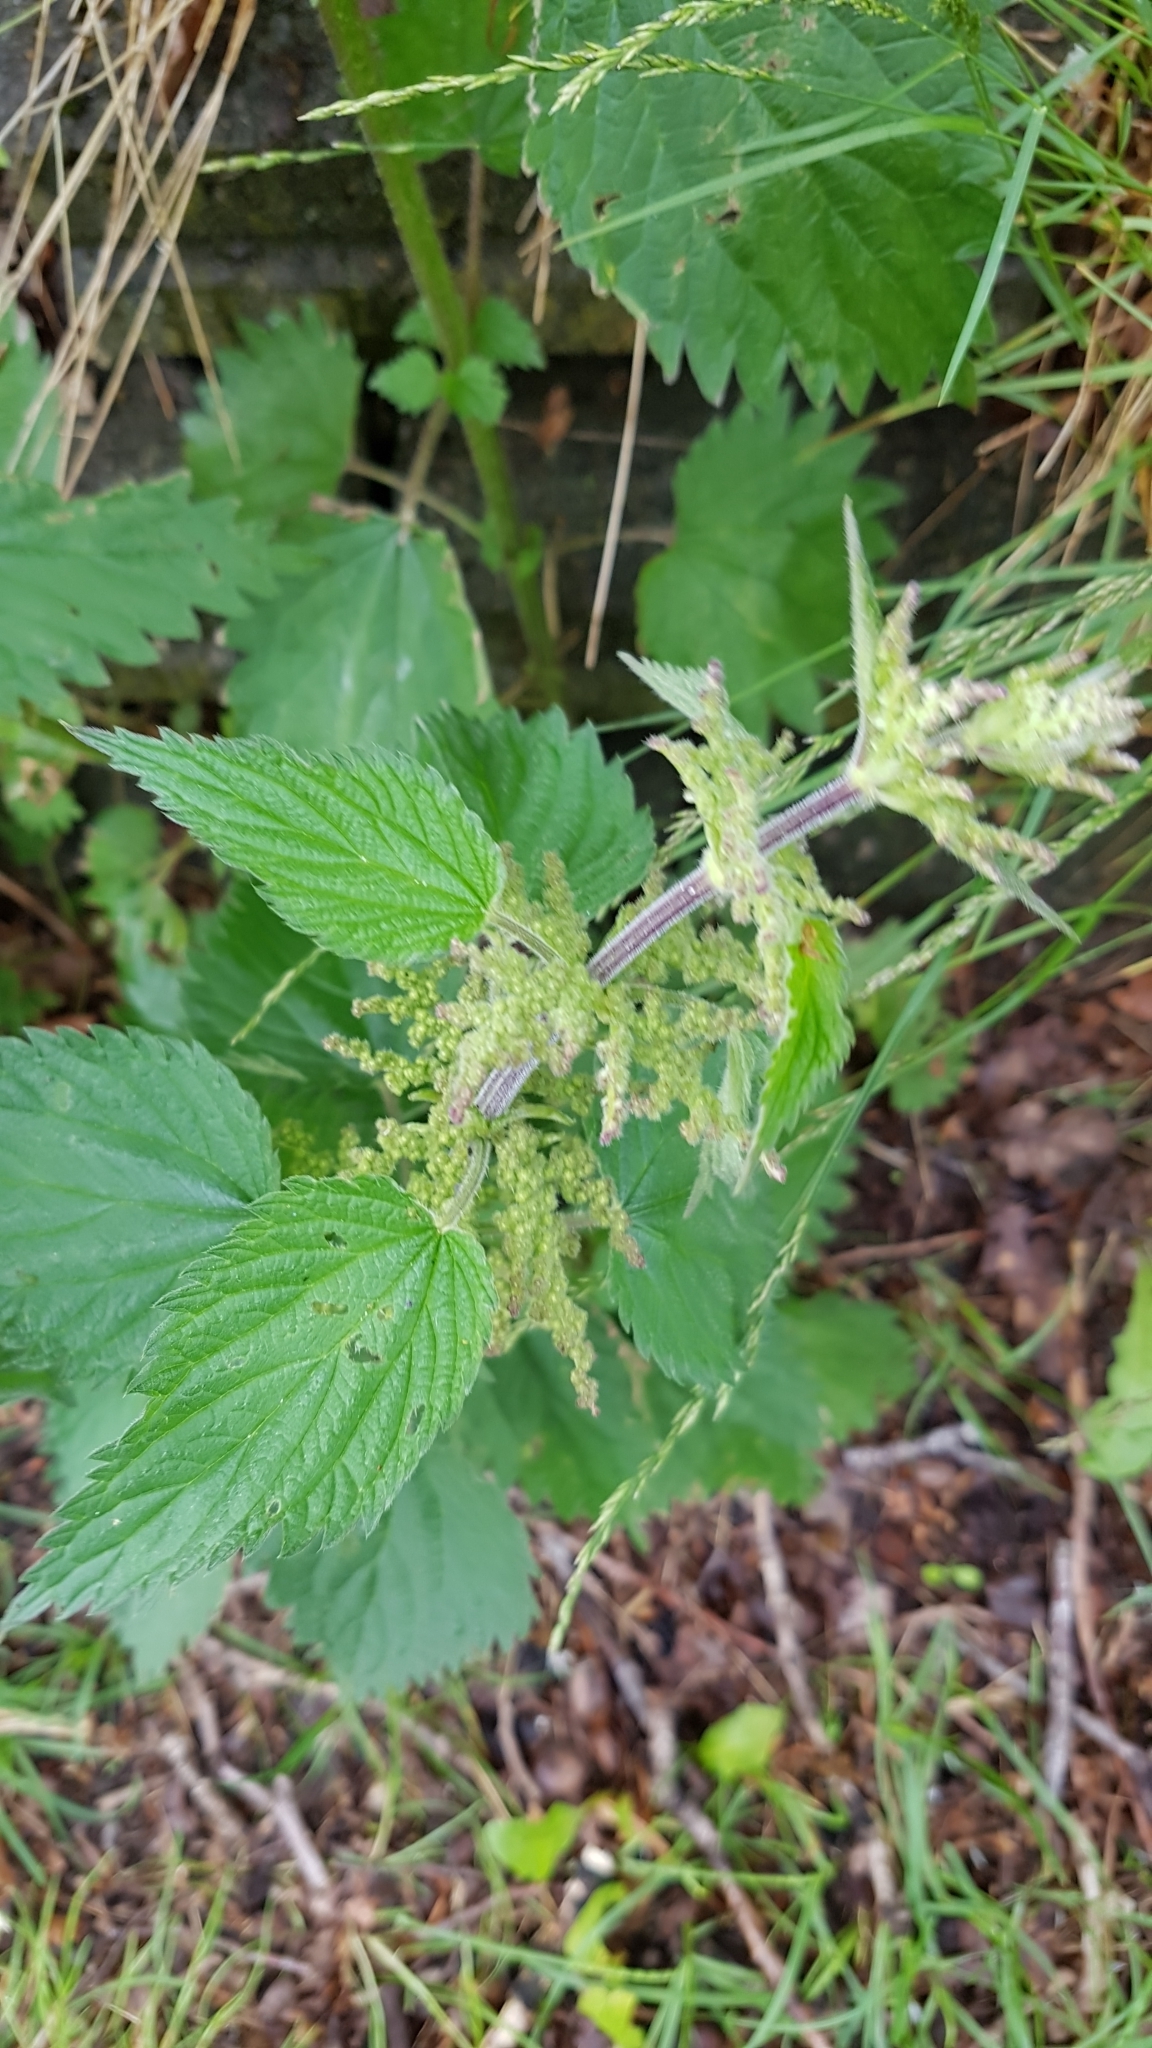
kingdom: Plantae
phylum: Tracheophyta
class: Magnoliopsida
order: Rosales
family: Urticaceae
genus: Urtica
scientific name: Urtica dioica
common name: Common nettle
